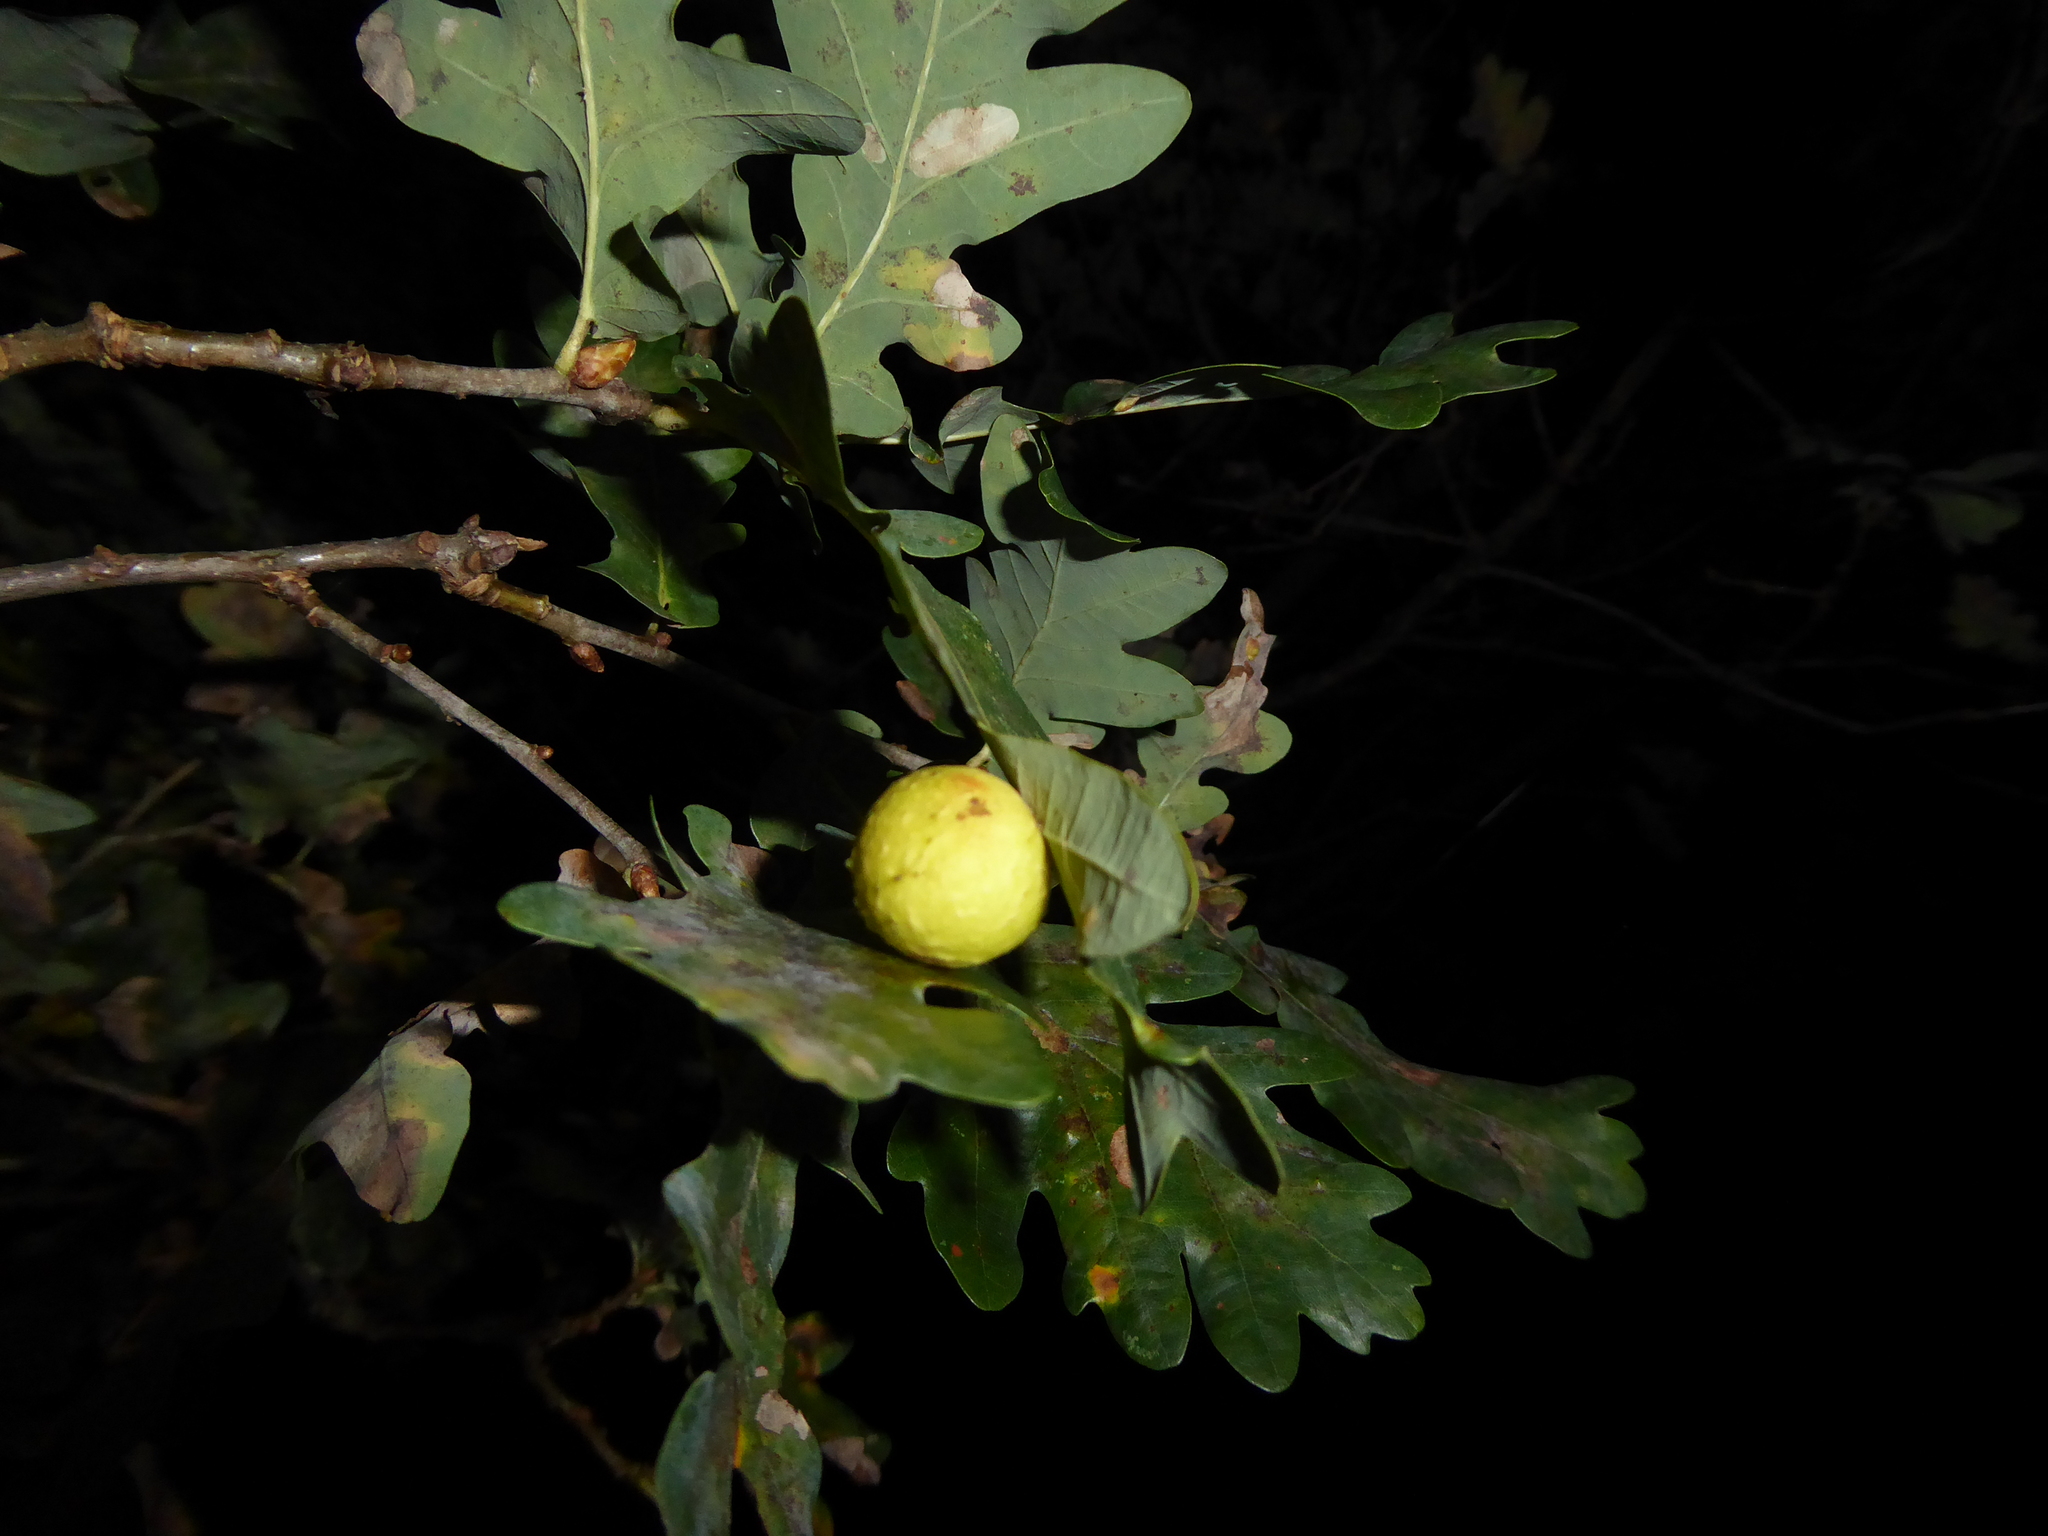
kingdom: Animalia
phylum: Arthropoda
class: Insecta
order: Hymenoptera
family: Cynipidae
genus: Cynips
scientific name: Cynips quercusfolii
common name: Cherry gall
